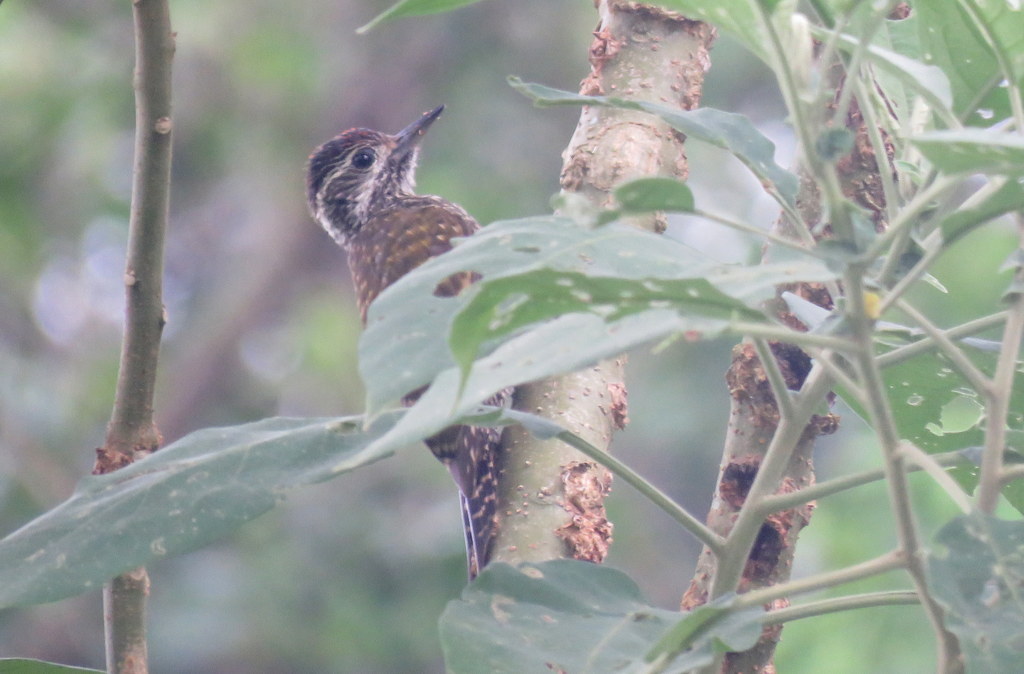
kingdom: Animalia
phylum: Chordata
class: Aves
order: Piciformes
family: Picidae
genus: Veniliornis
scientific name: Veniliornis spilogaster
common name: White-spotted woodpecker
